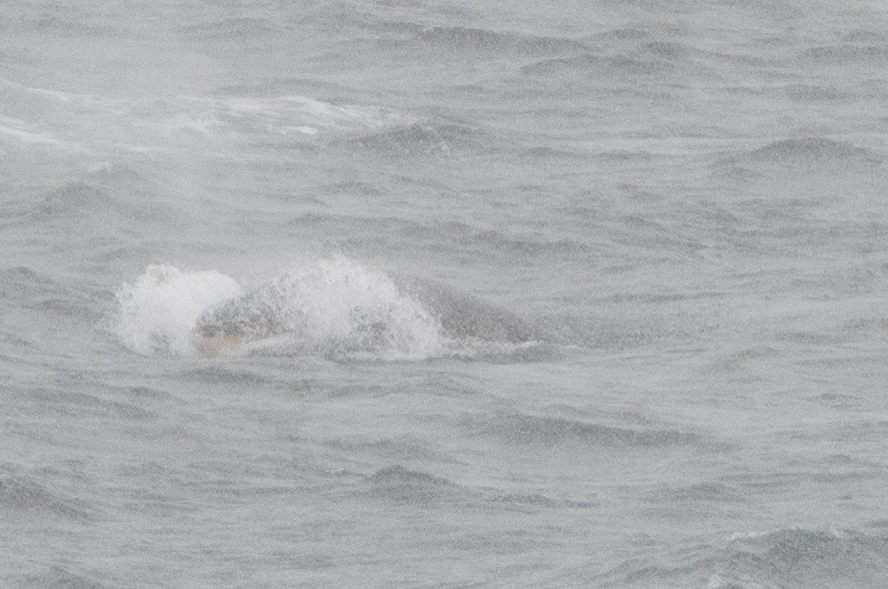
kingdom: Animalia
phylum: Chordata
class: Mammalia
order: Cetacea
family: Balaenopteridae
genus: Balaenoptera
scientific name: Balaenoptera bonaerensis
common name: Antarctic minke whale
